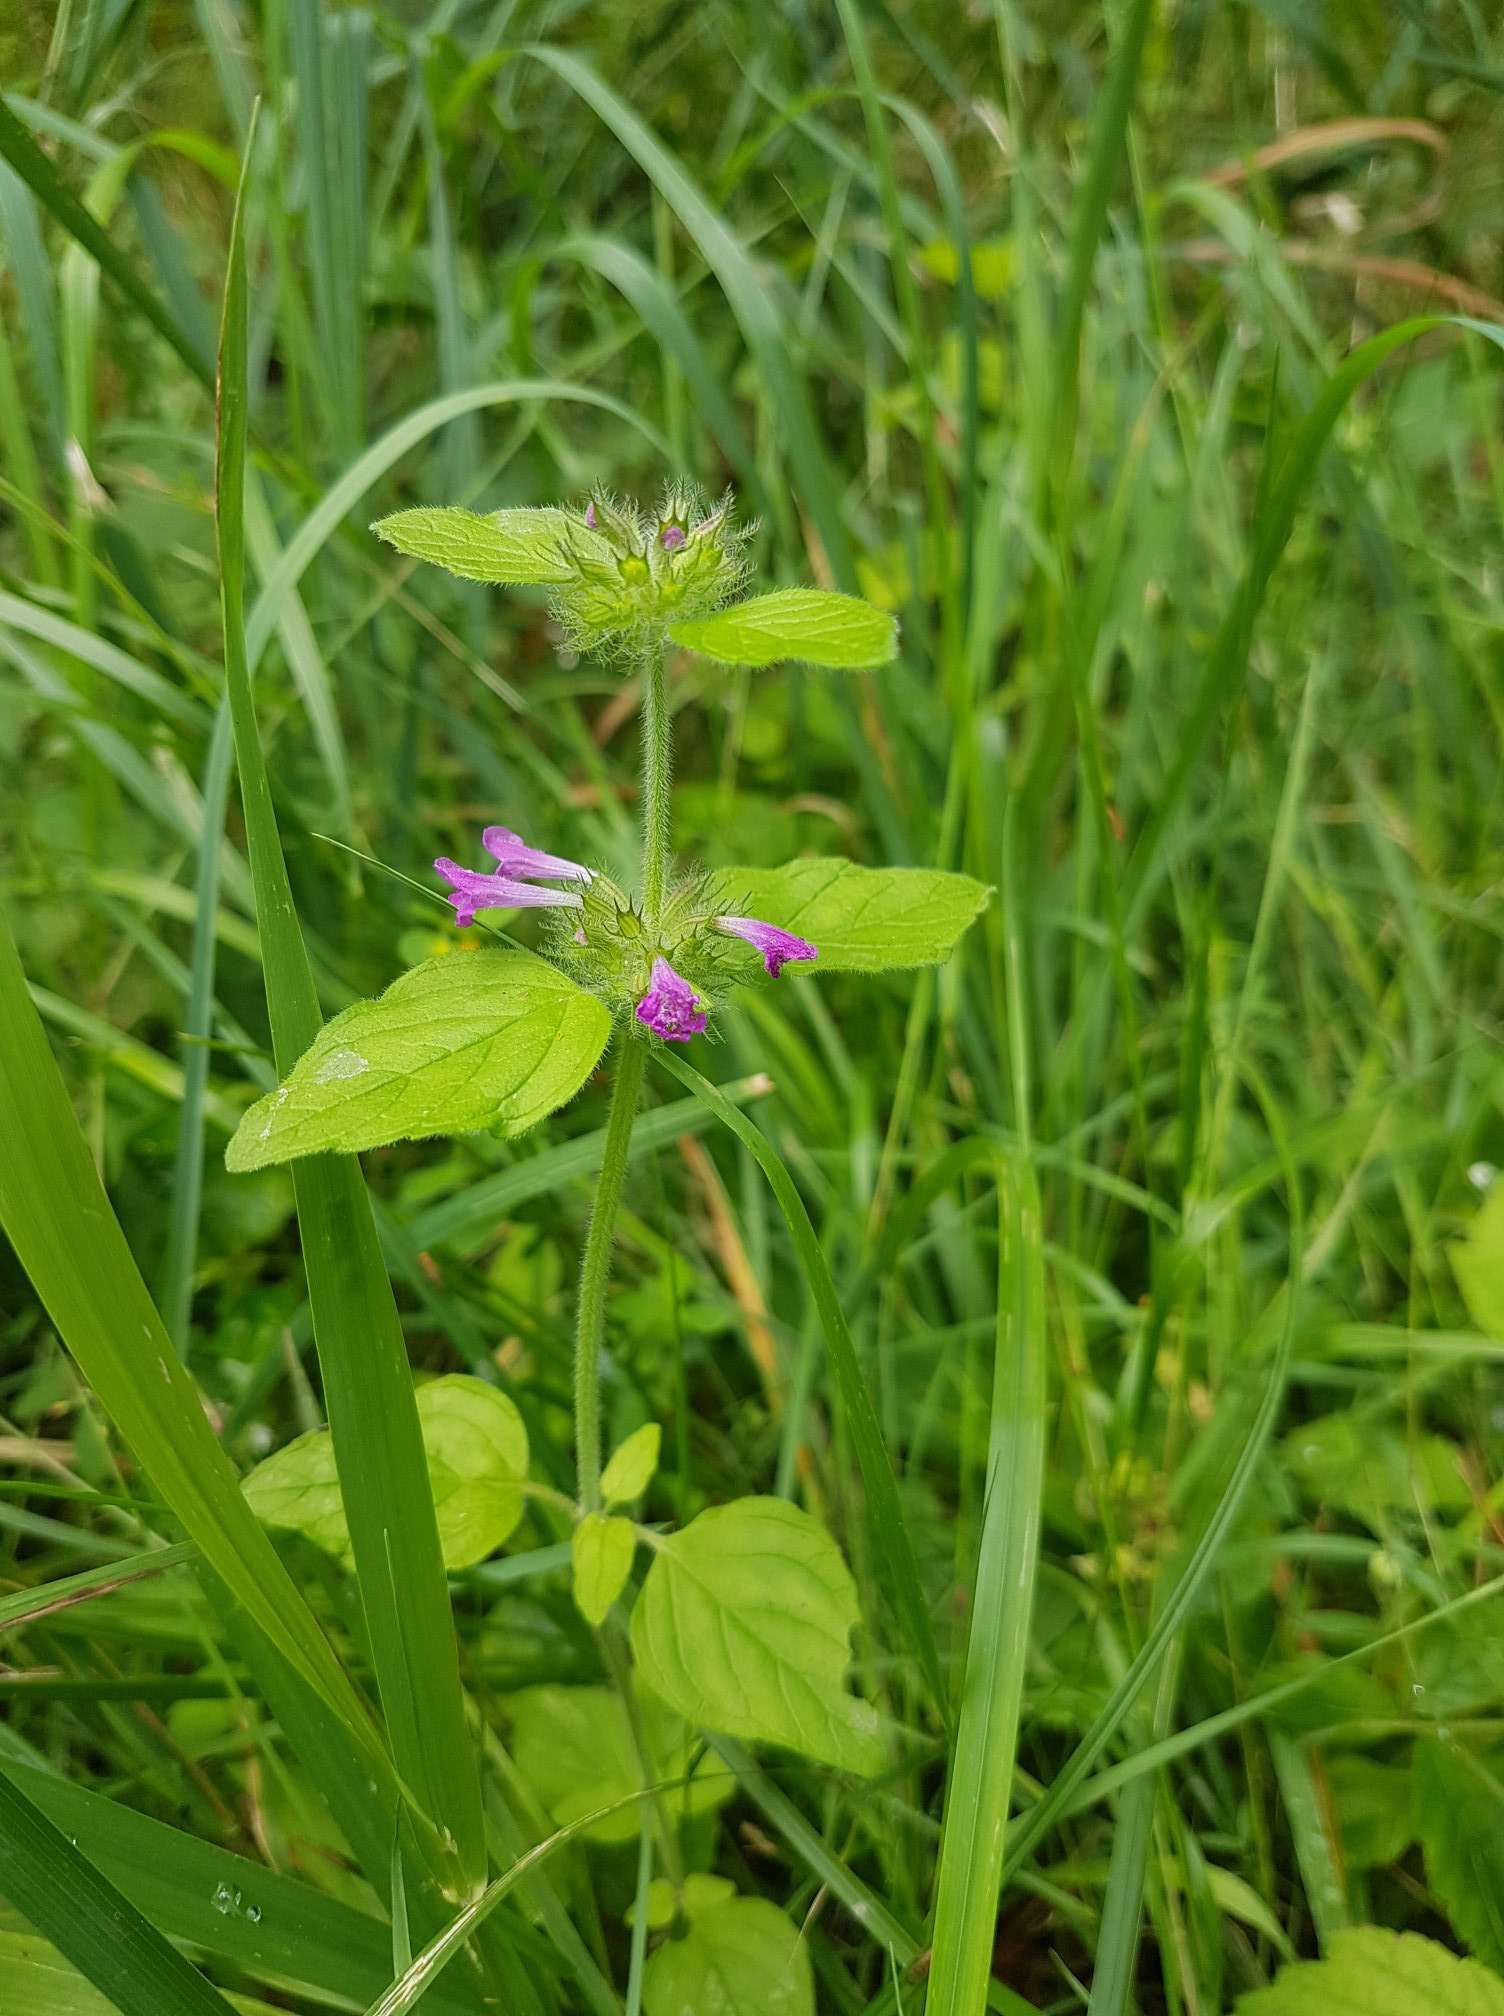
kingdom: Plantae
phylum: Tracheophyta
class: Magnoliopsida
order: Lamiales
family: Lamiaceae
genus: Clinopodium
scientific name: Clinopodium vulgare
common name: Wild basil
